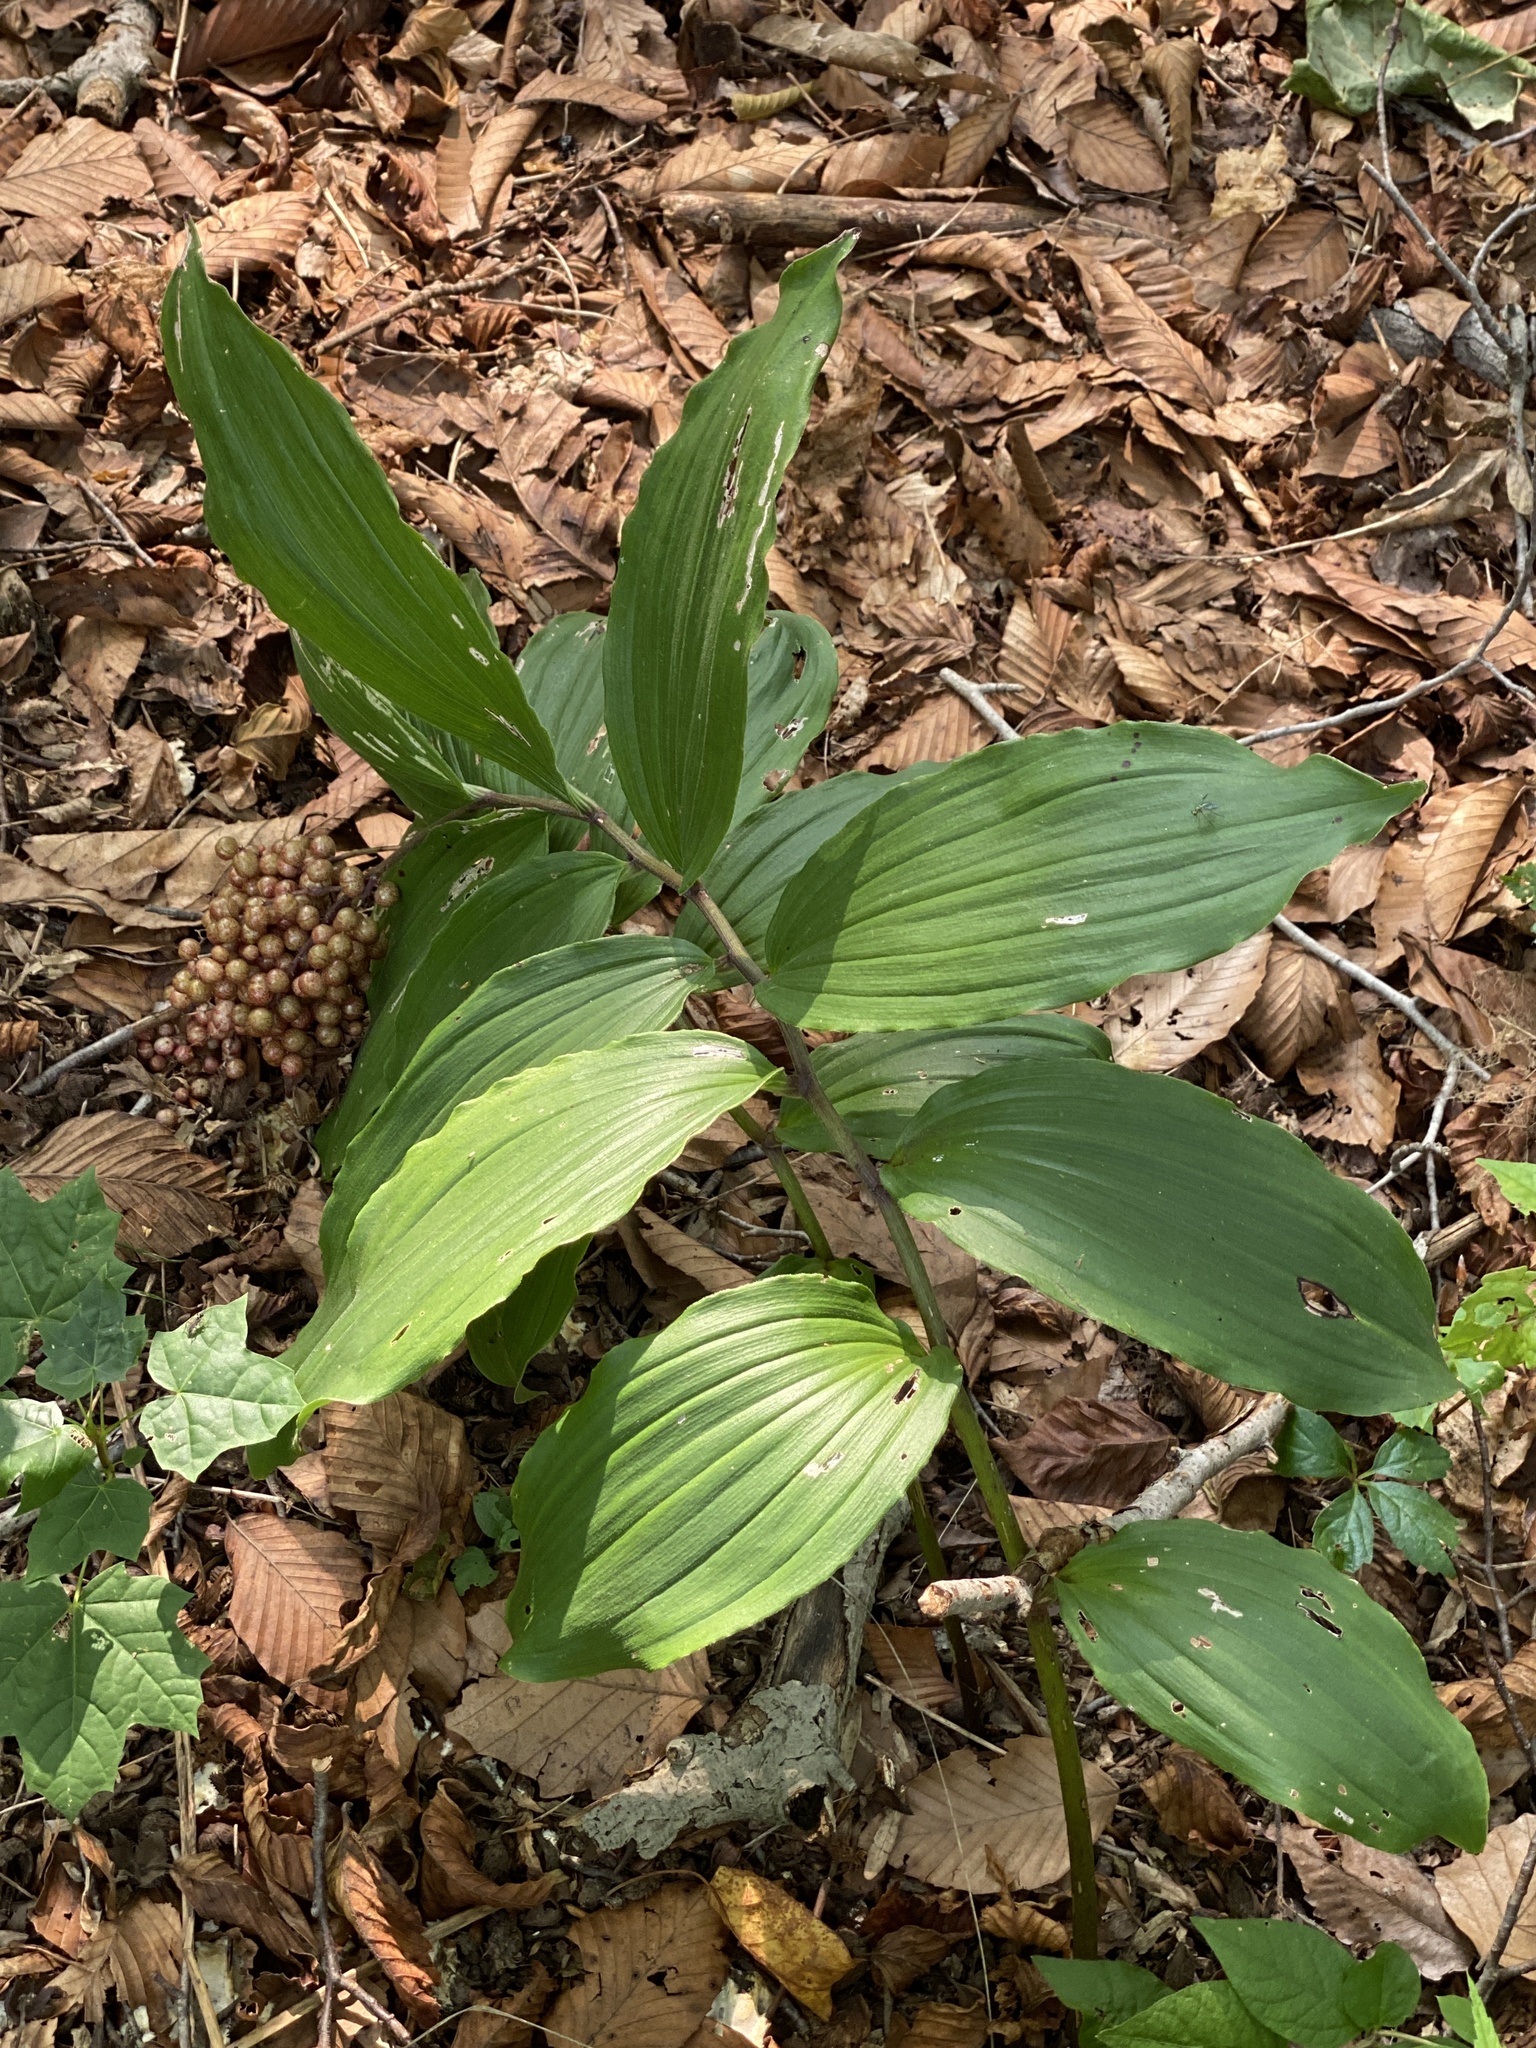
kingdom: Plantae
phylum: Tracheophyta
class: Liliopsida
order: Asparagales
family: Asparagaceae
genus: Maianthemum
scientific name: Maianthemum racemosum
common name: False spikenard
